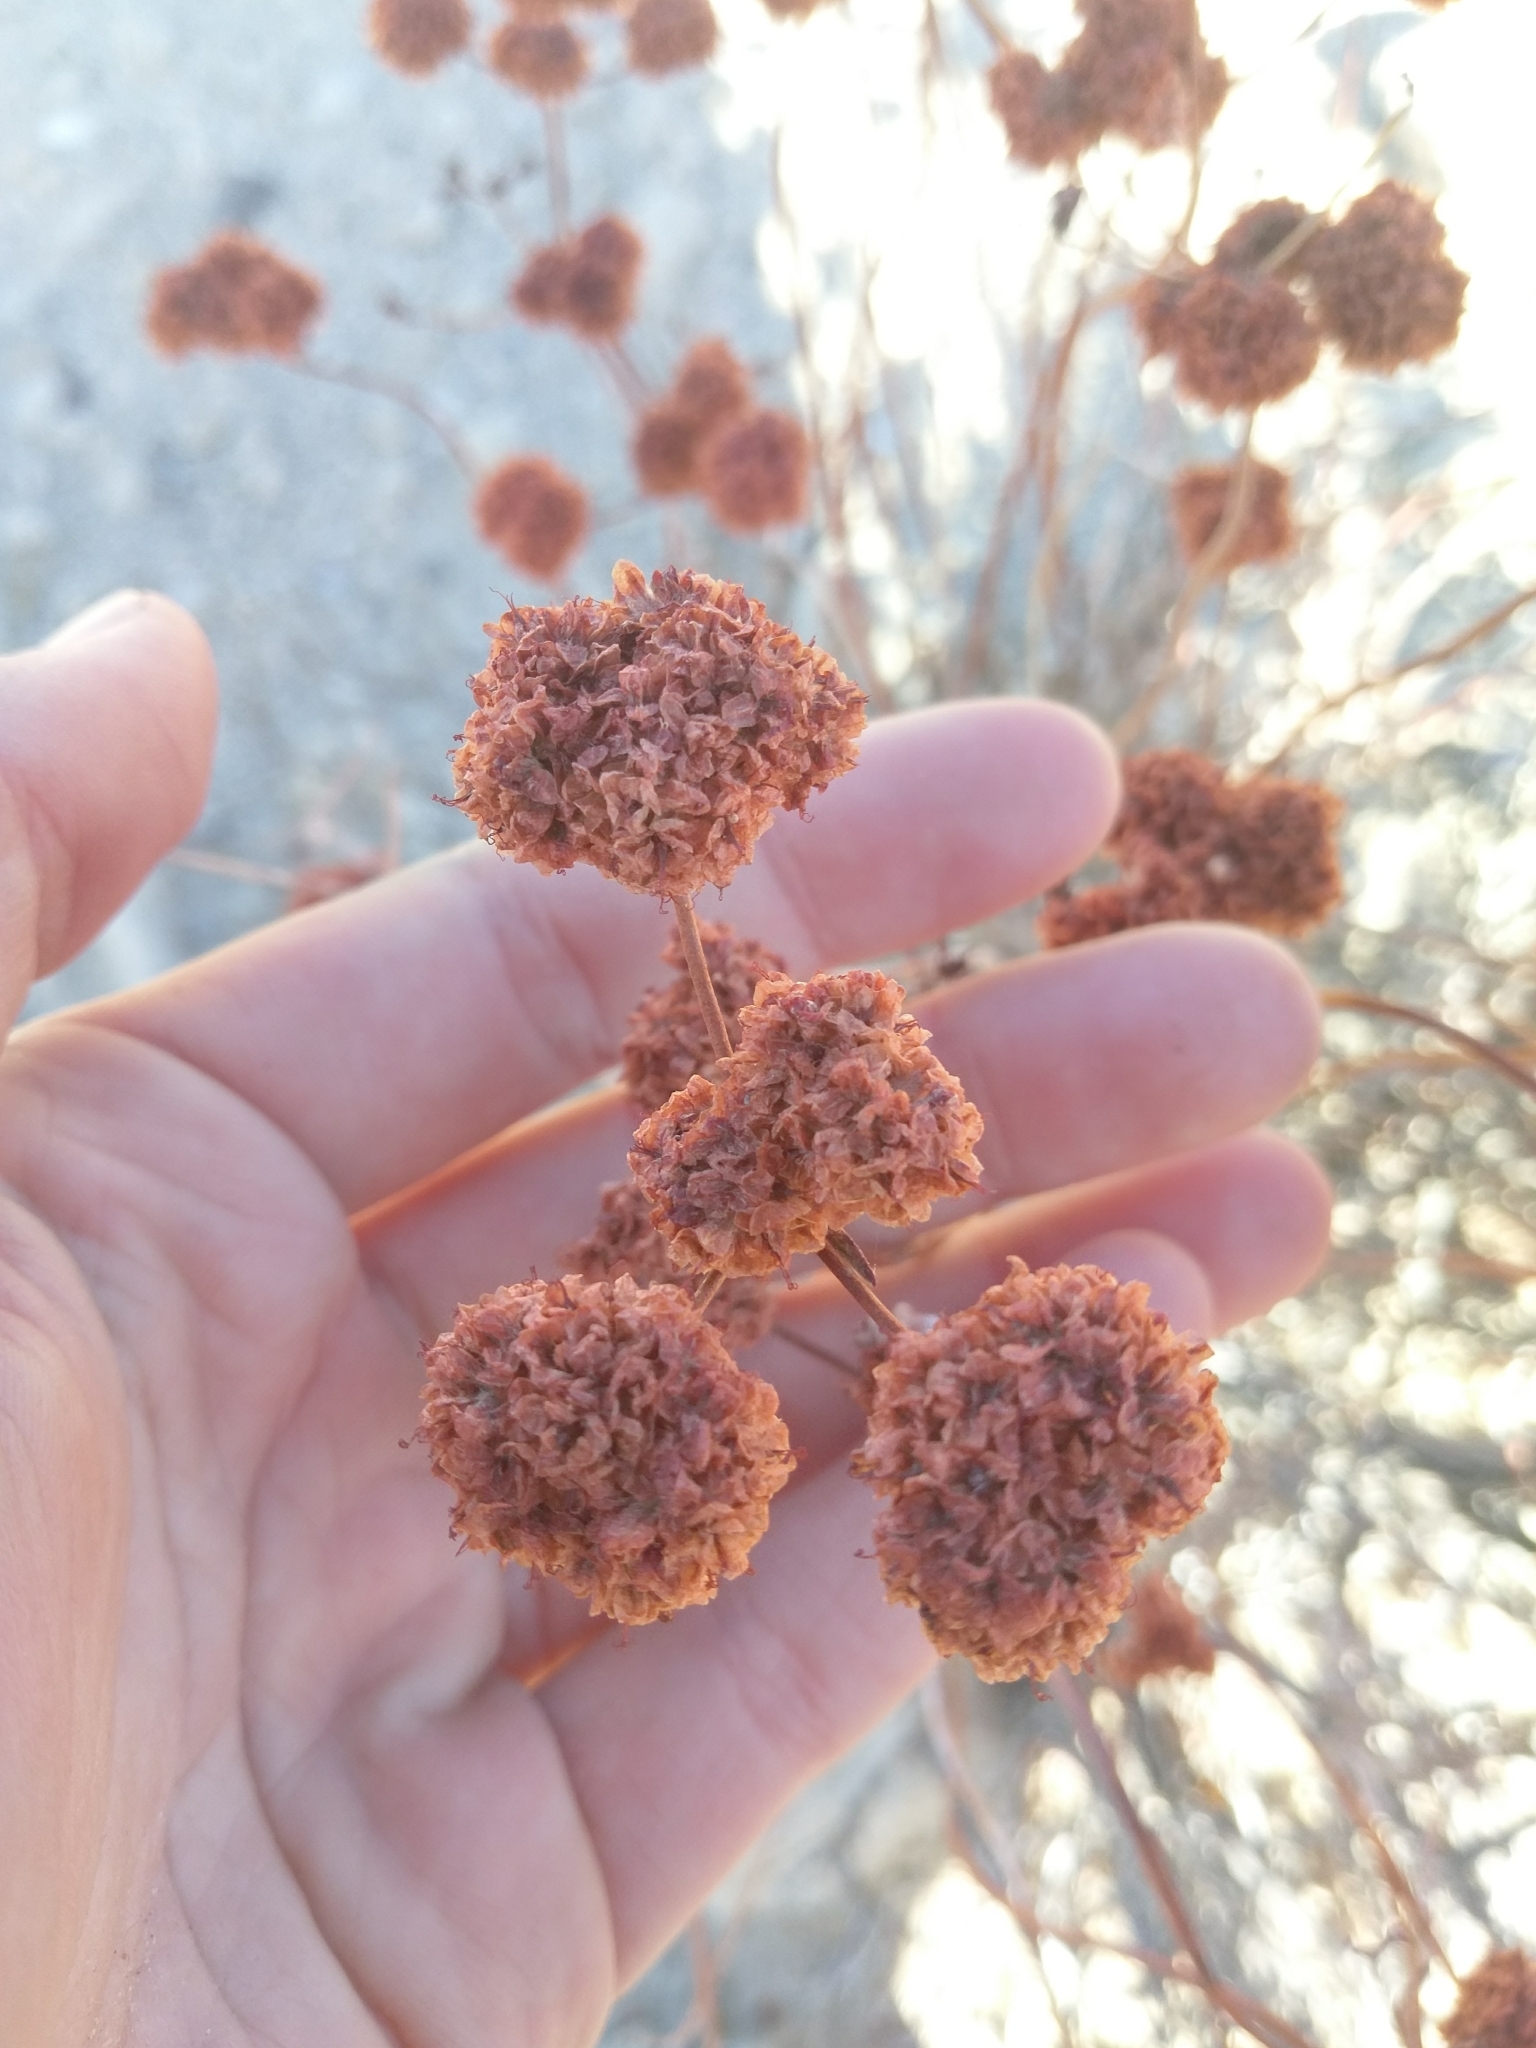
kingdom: Plantae
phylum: Tracheophyta
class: Magnoliopsida
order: Caryophyllales
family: Polygonaceae
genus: Eriogonum
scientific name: Eriogonum fasciculatum
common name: California wild buckwheat
